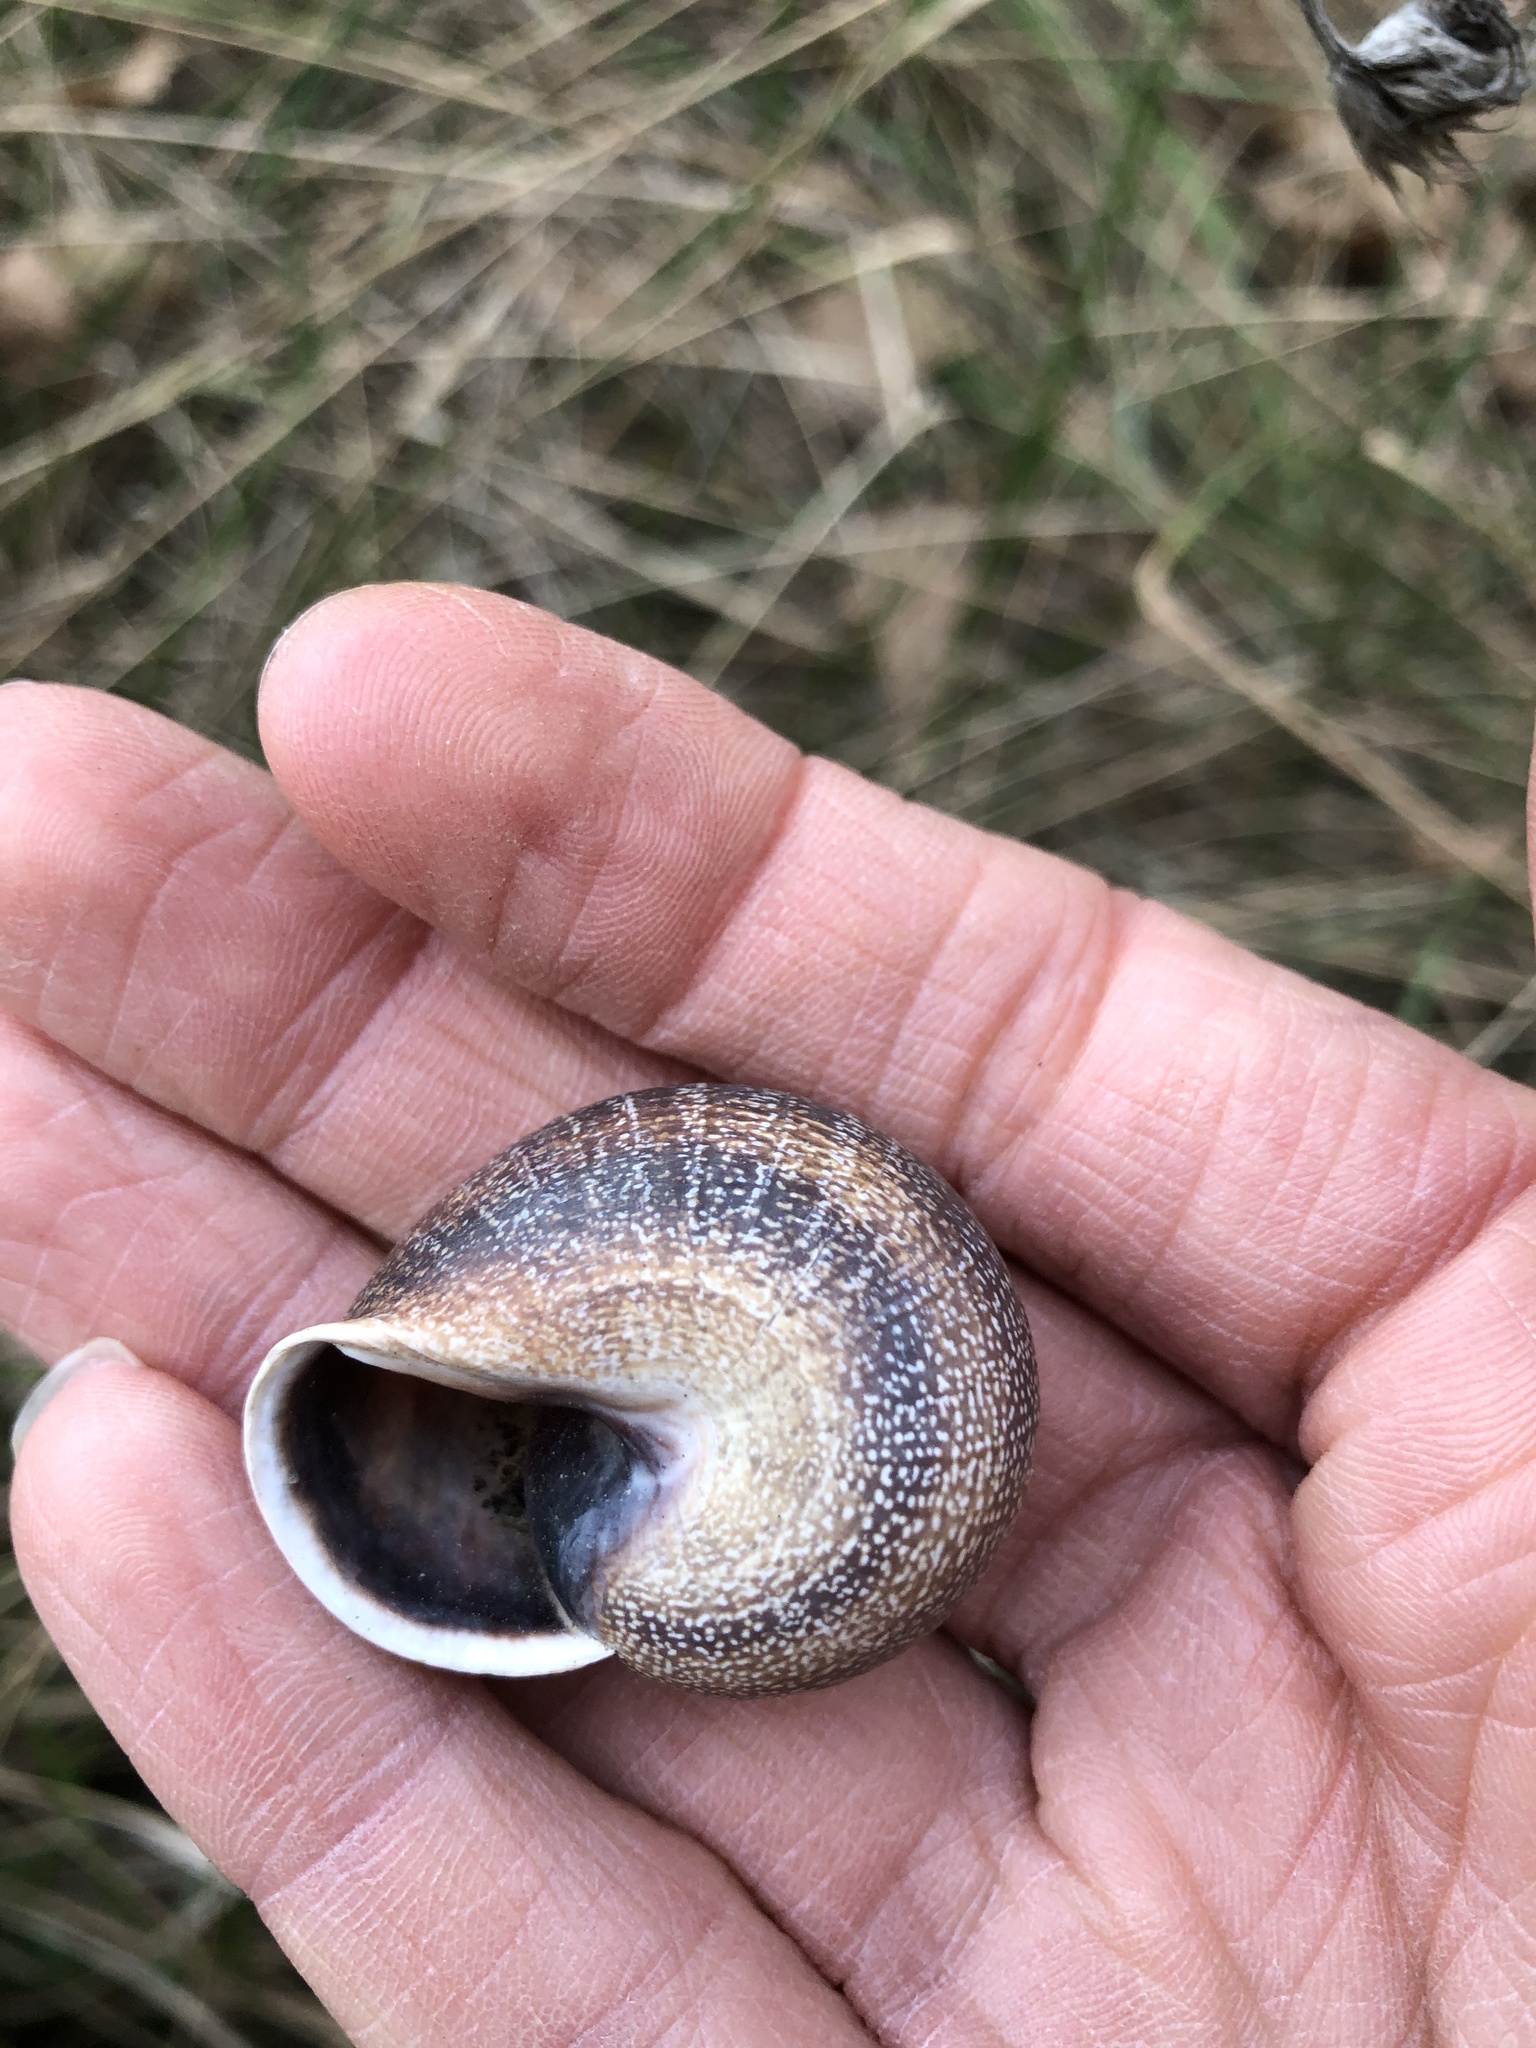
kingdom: Animalia
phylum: Mollusca
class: Gastropoda
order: Stylommatophora
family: Helicidae
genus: Otala
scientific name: Otala punctata
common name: Milk snail
